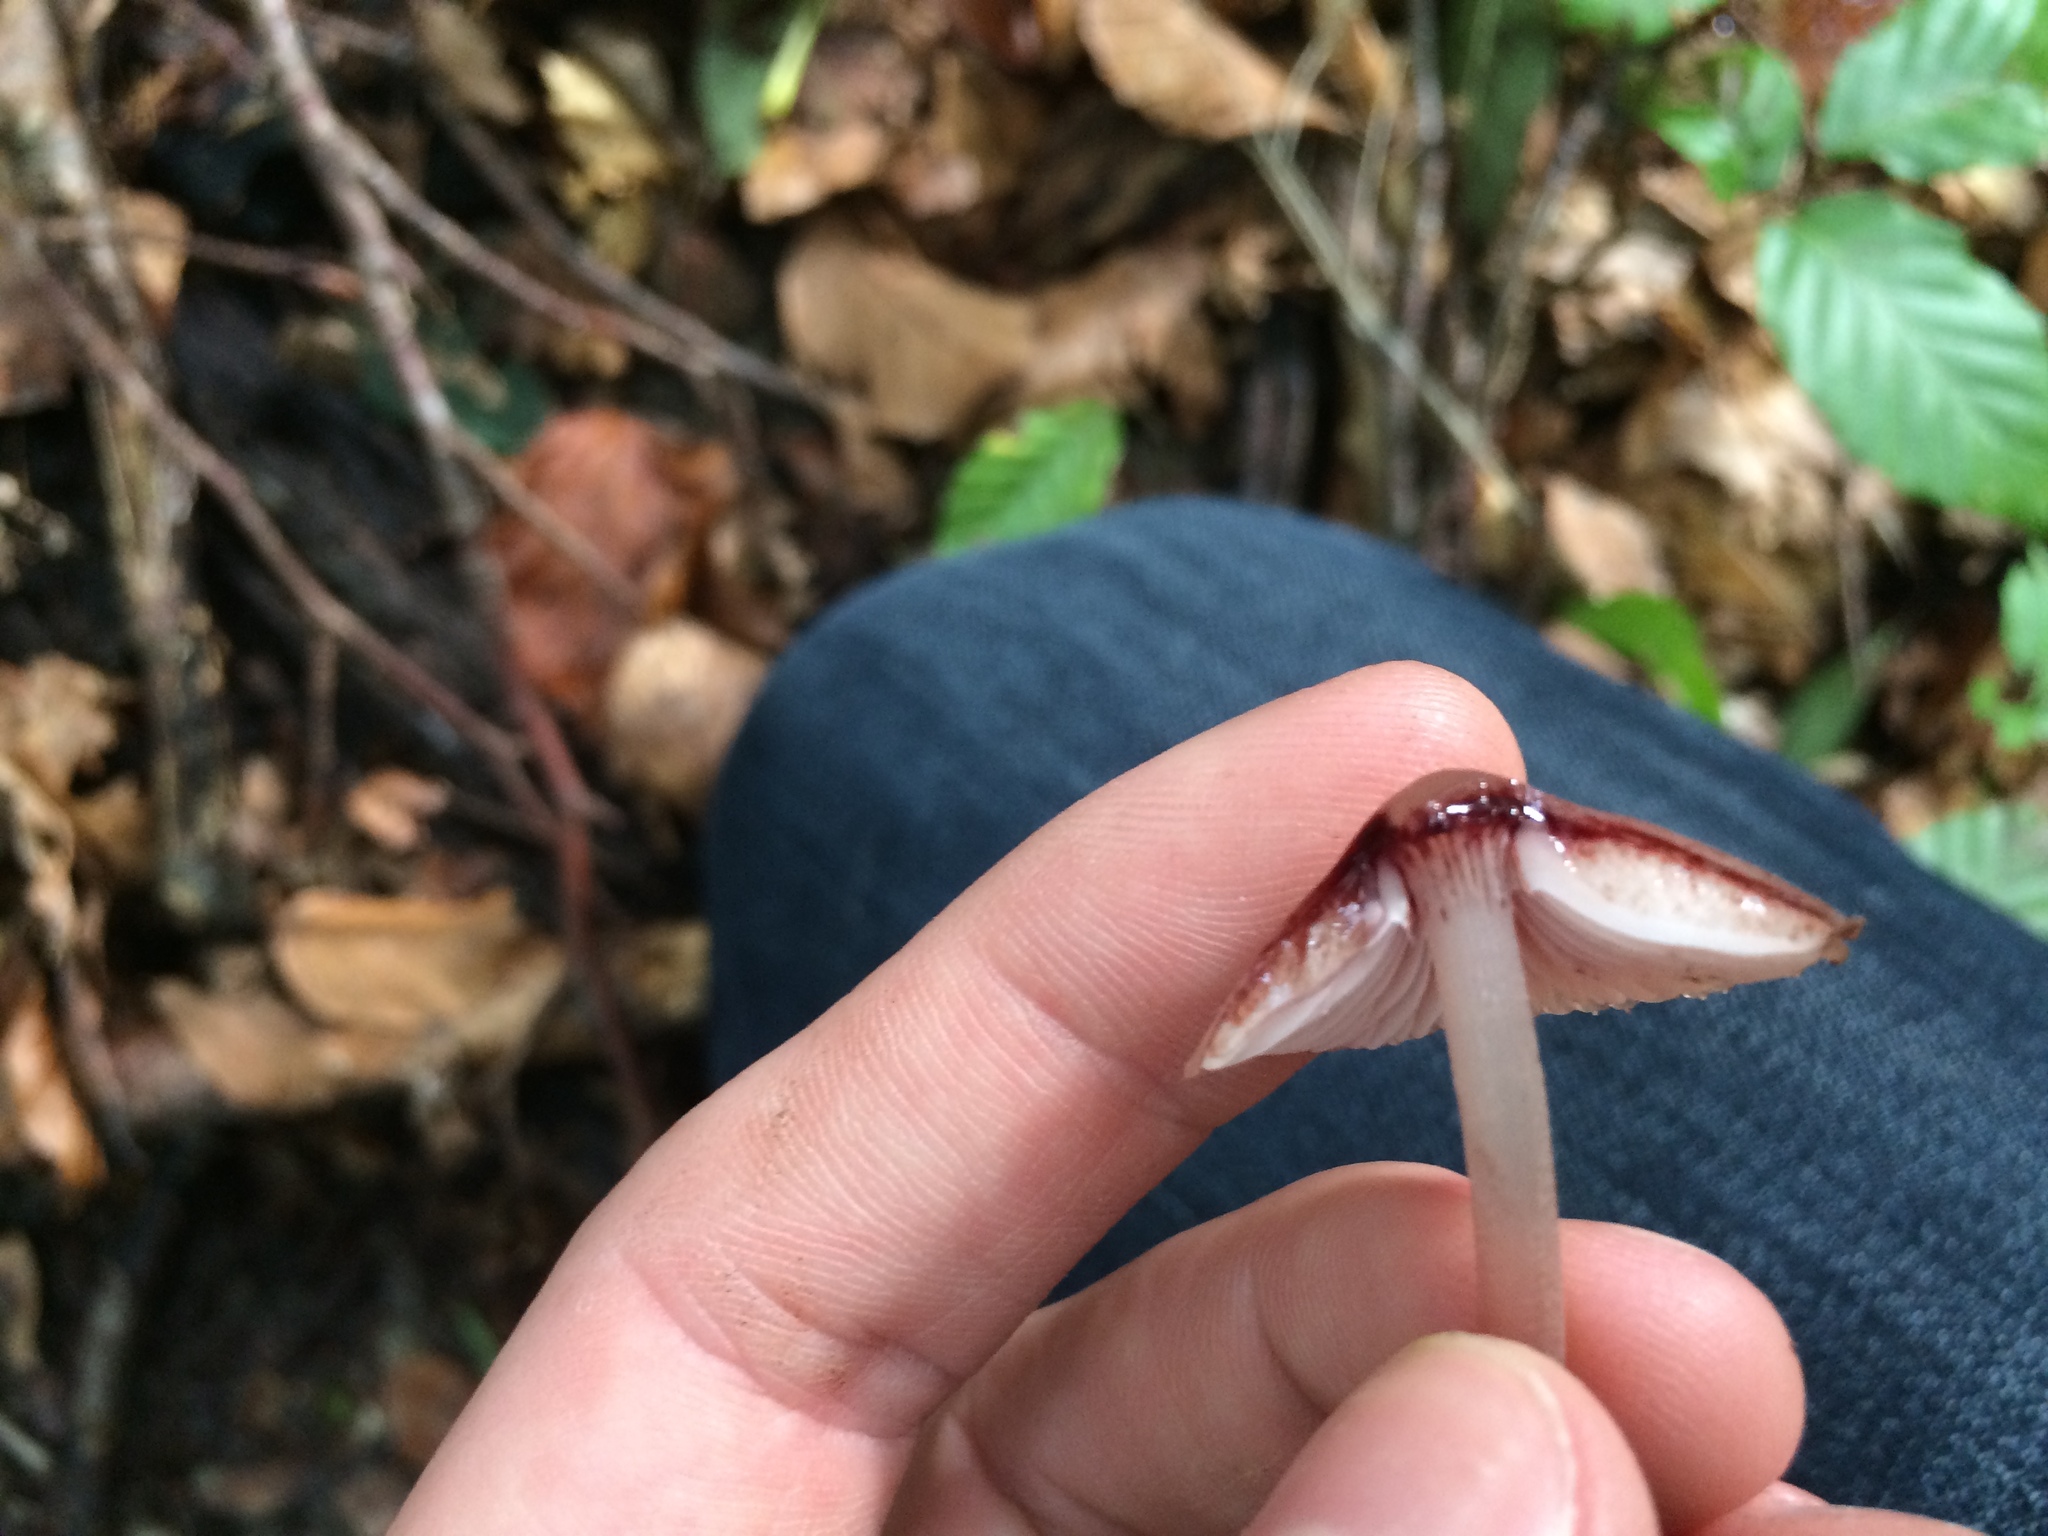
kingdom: Fungi
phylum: Basidiomycota
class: Agaricomycetes
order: Agaricales
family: Mycenaceae
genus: Mycena
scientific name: Mycena haematopus
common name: Burgundydrop bonnet
